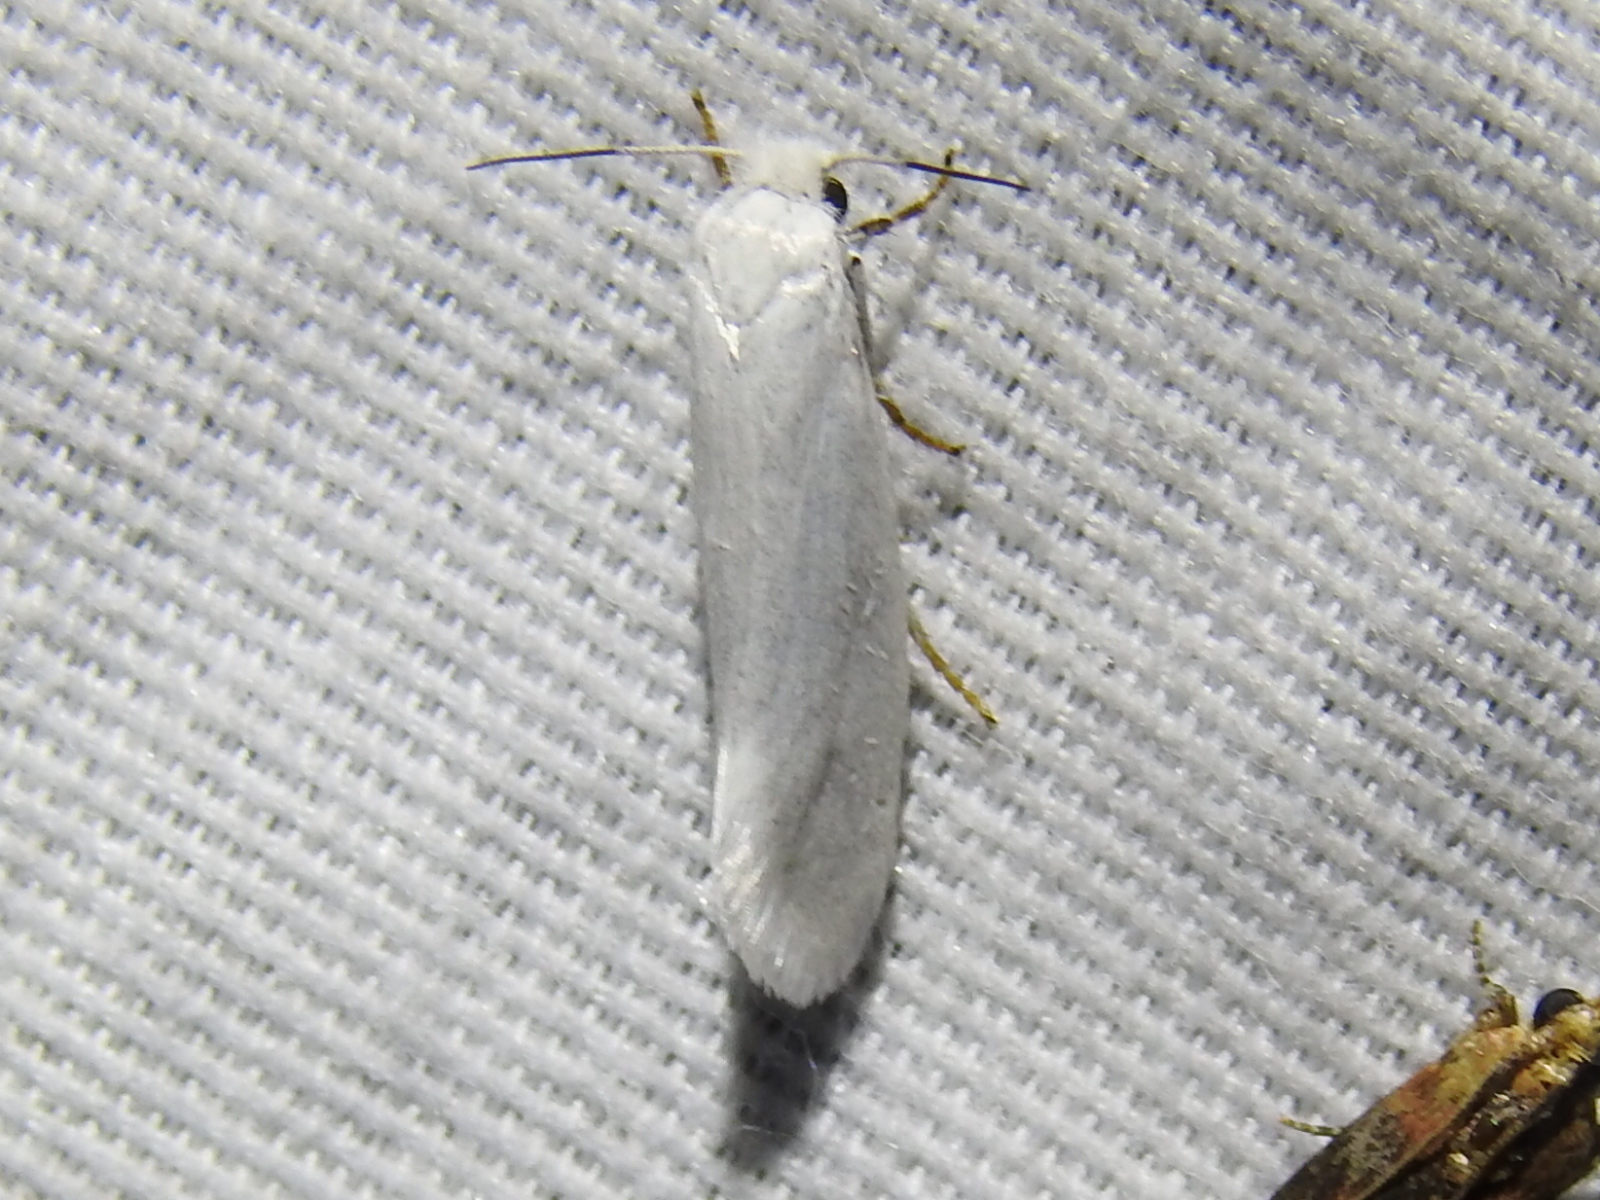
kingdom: Animalia
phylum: Arthropoda
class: Insecta
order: Lepidoptera
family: Prodoxidae
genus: Tegeticula
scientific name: Tegeticula yuccasella
